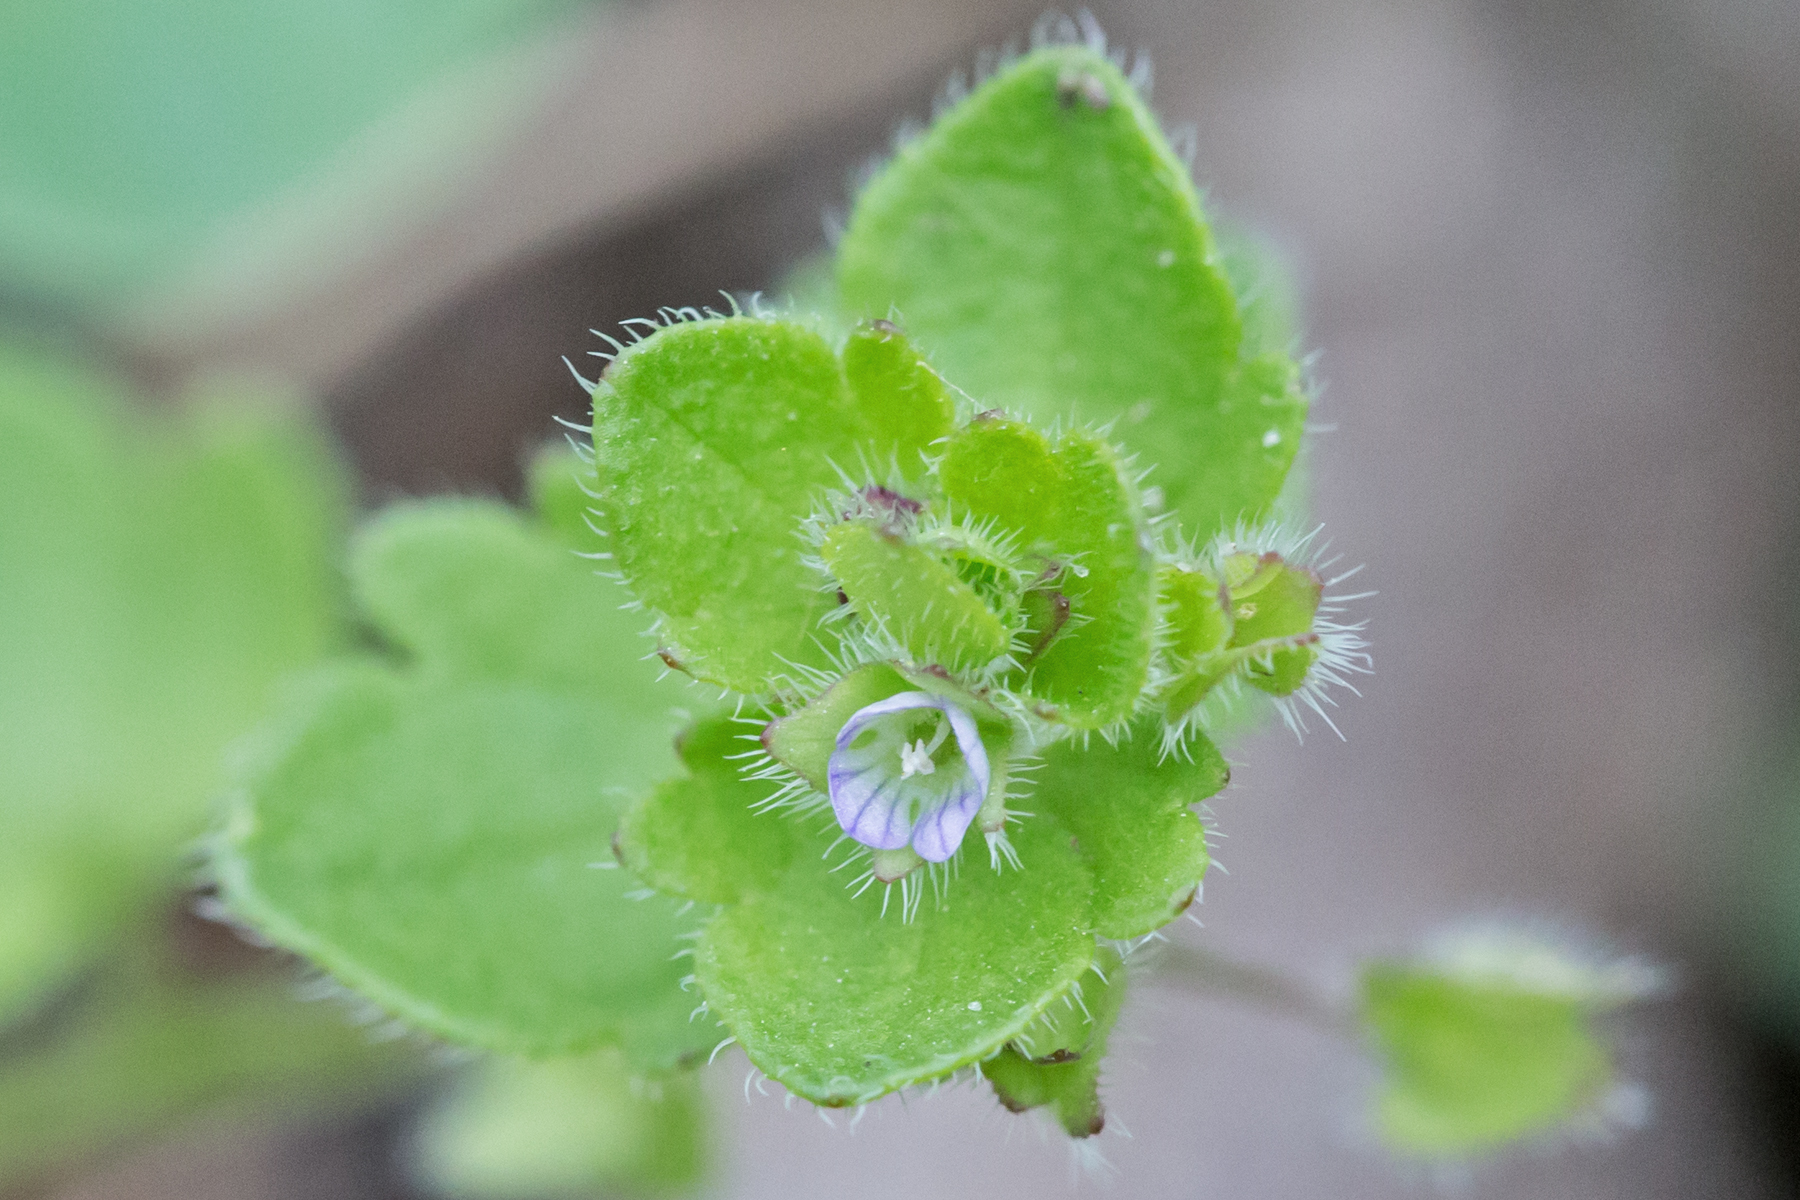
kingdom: Plantae
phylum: Tracheophyta
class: Magnoliopsida
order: Lamiales
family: Plantaginaceae
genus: Veronica
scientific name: Veronica hederifolia
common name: Ivy-leaved speedwell
